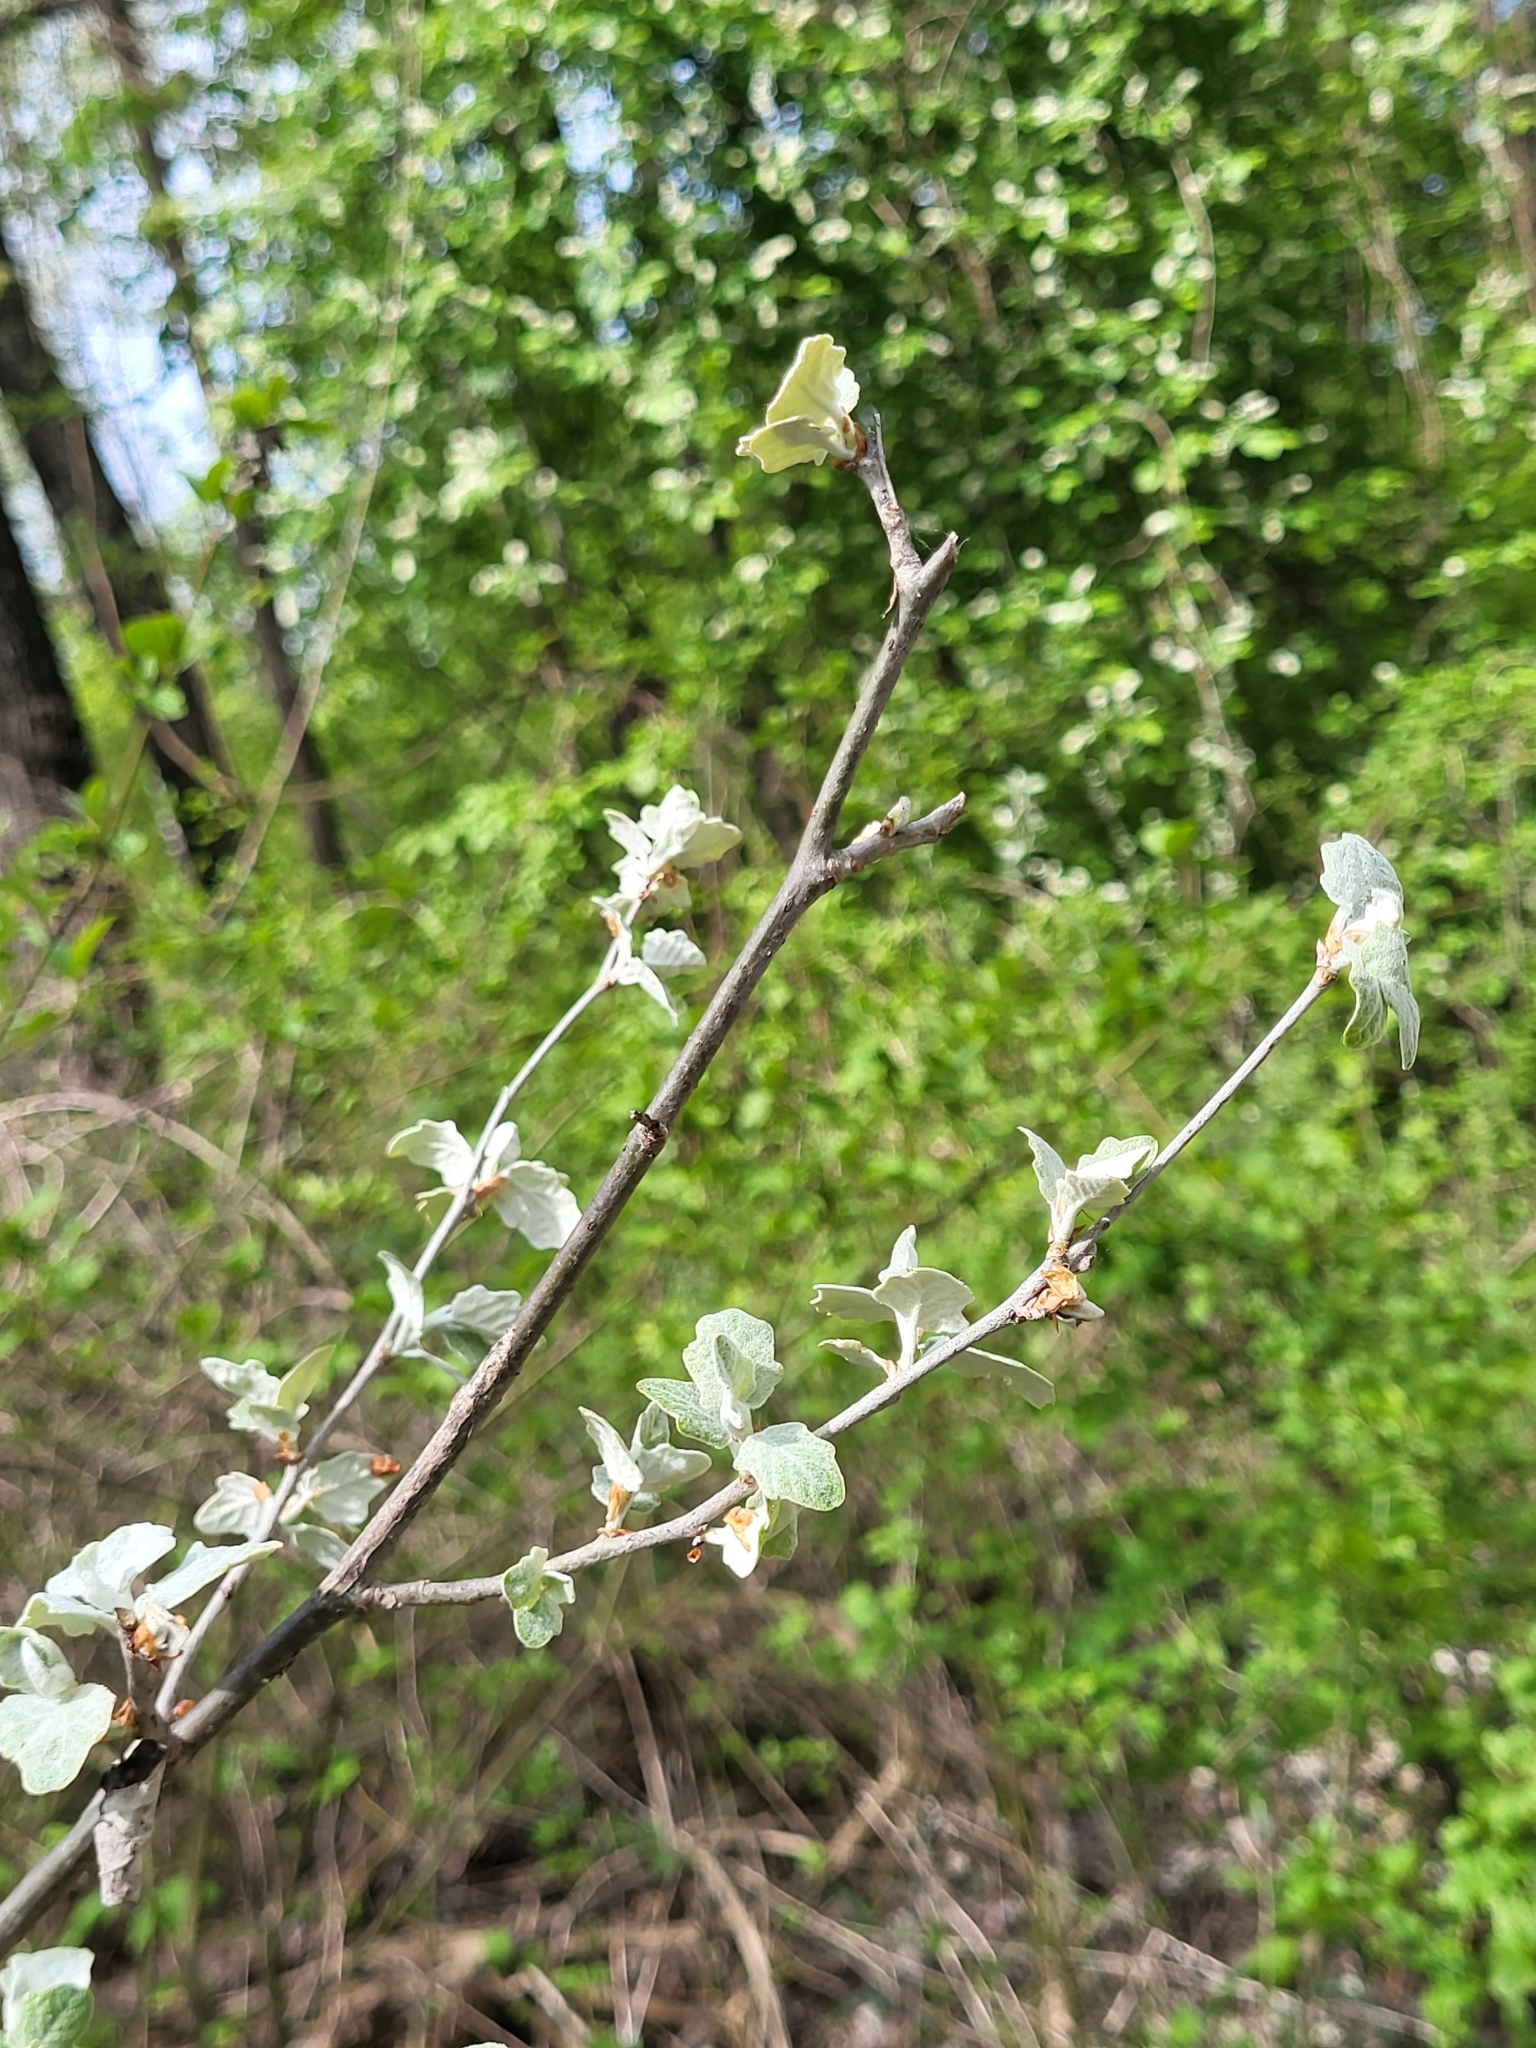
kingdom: Plantae
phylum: Tracheophyta
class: Magnoliopsida
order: Malpighiales
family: Salicaceae
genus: Populus
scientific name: Populus alba
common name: White poplar
